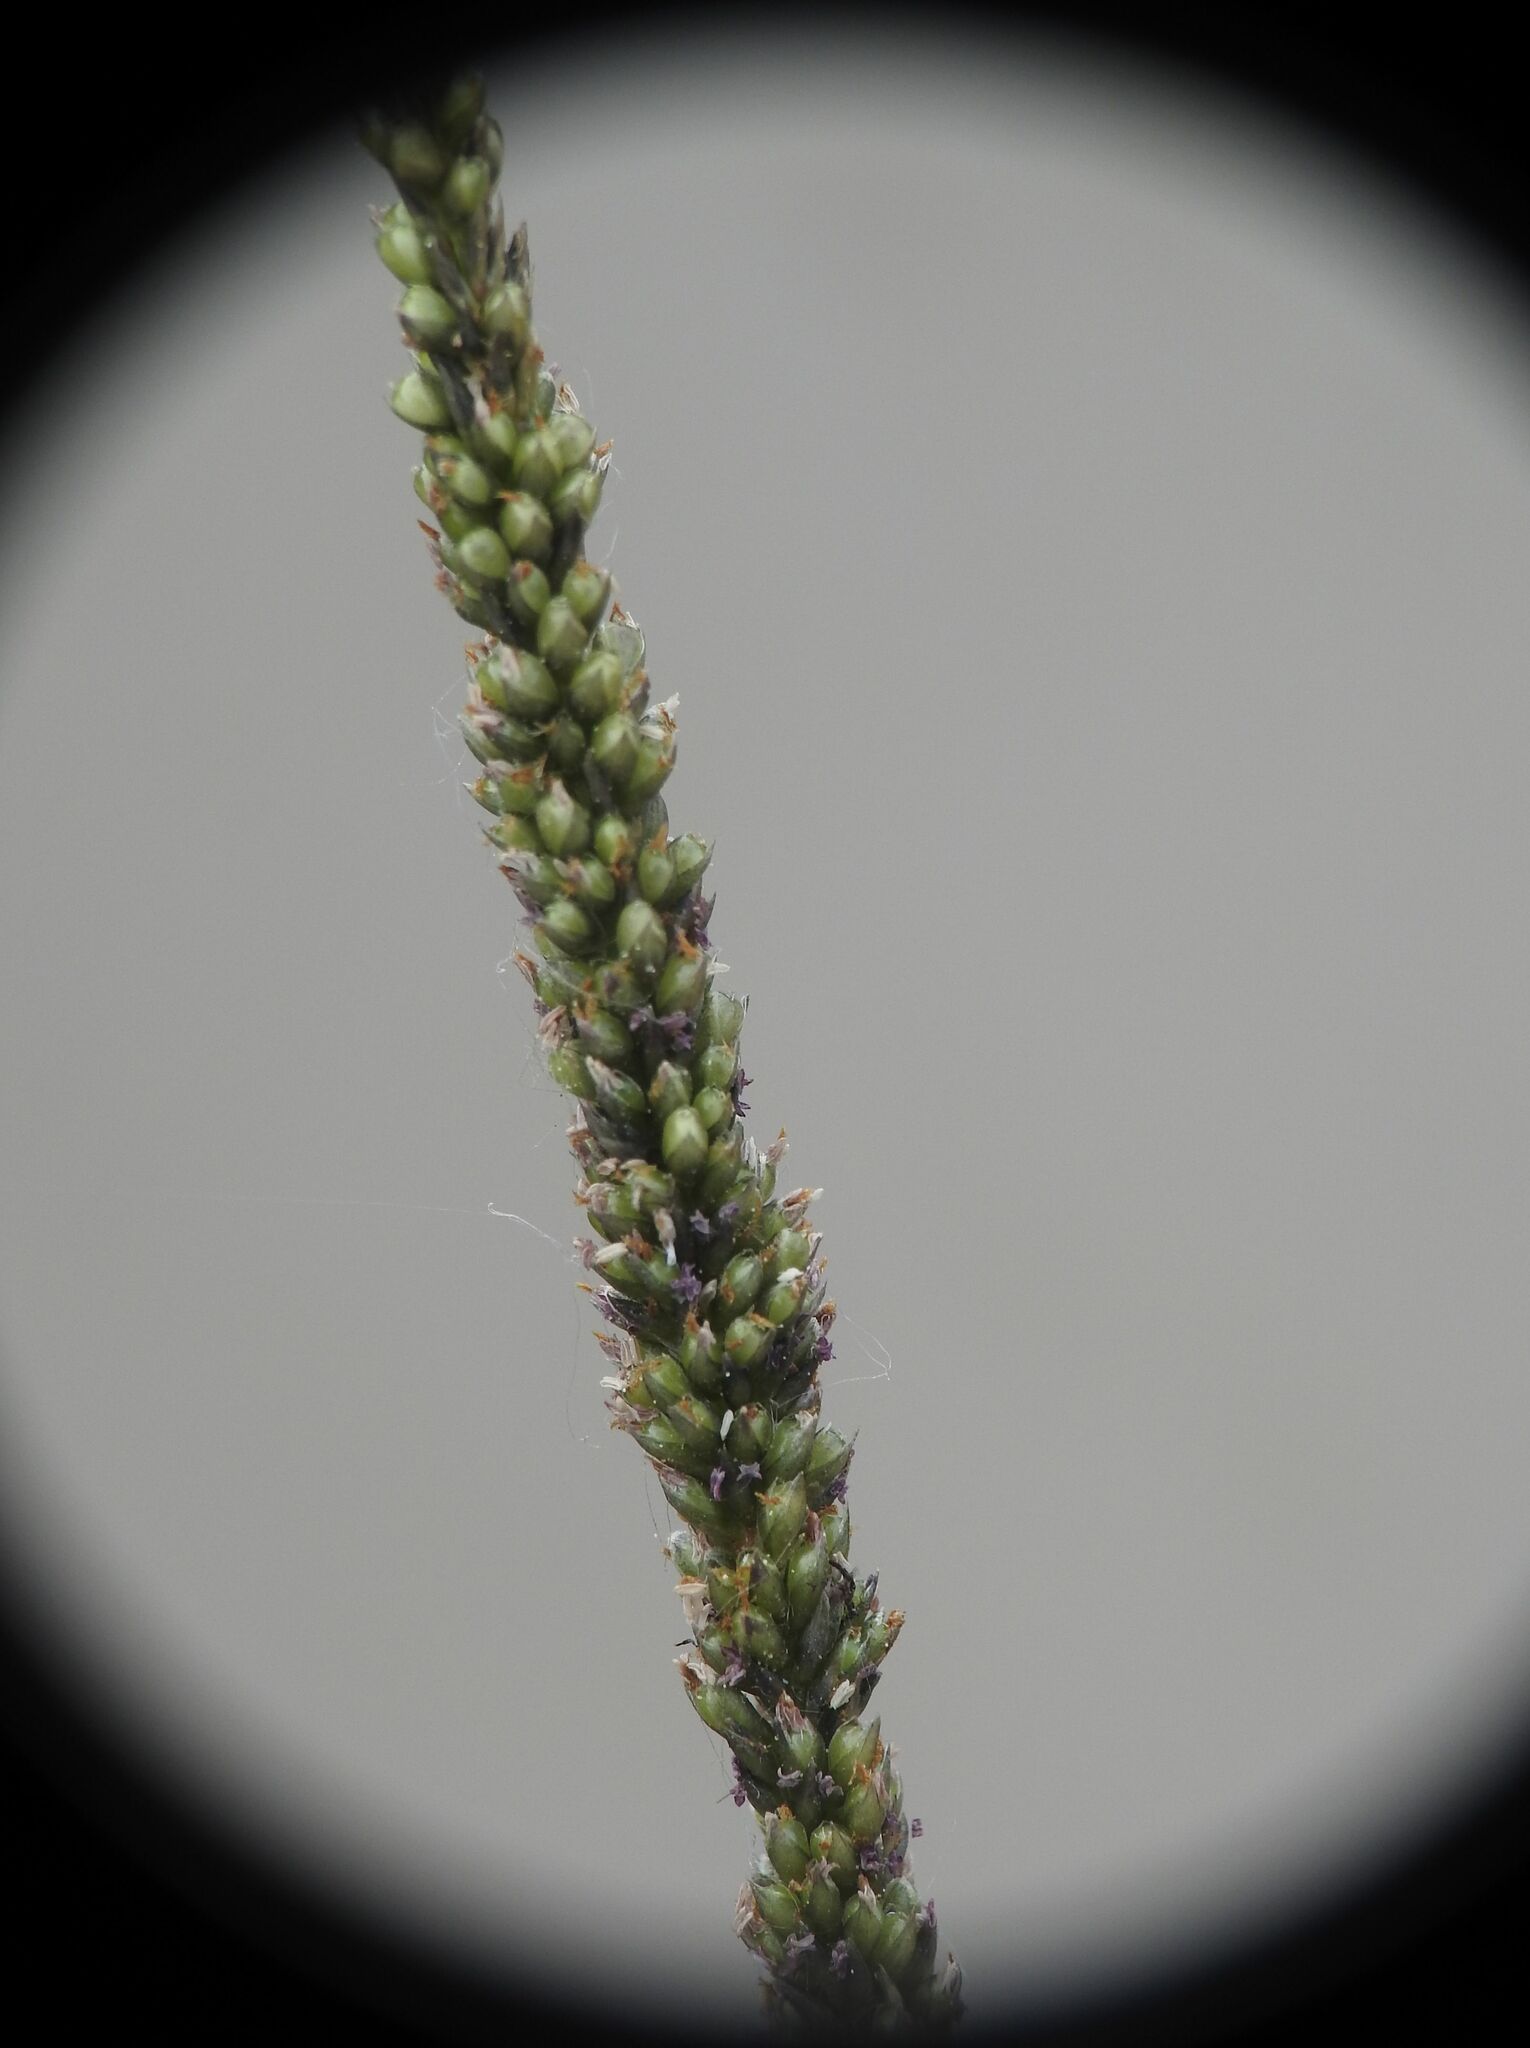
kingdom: Plantae
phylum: Tracheophyta
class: Liliopsida
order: Poales
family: Poaceae
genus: Sporobolus
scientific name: Sporobolus indicus
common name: Smut grass
